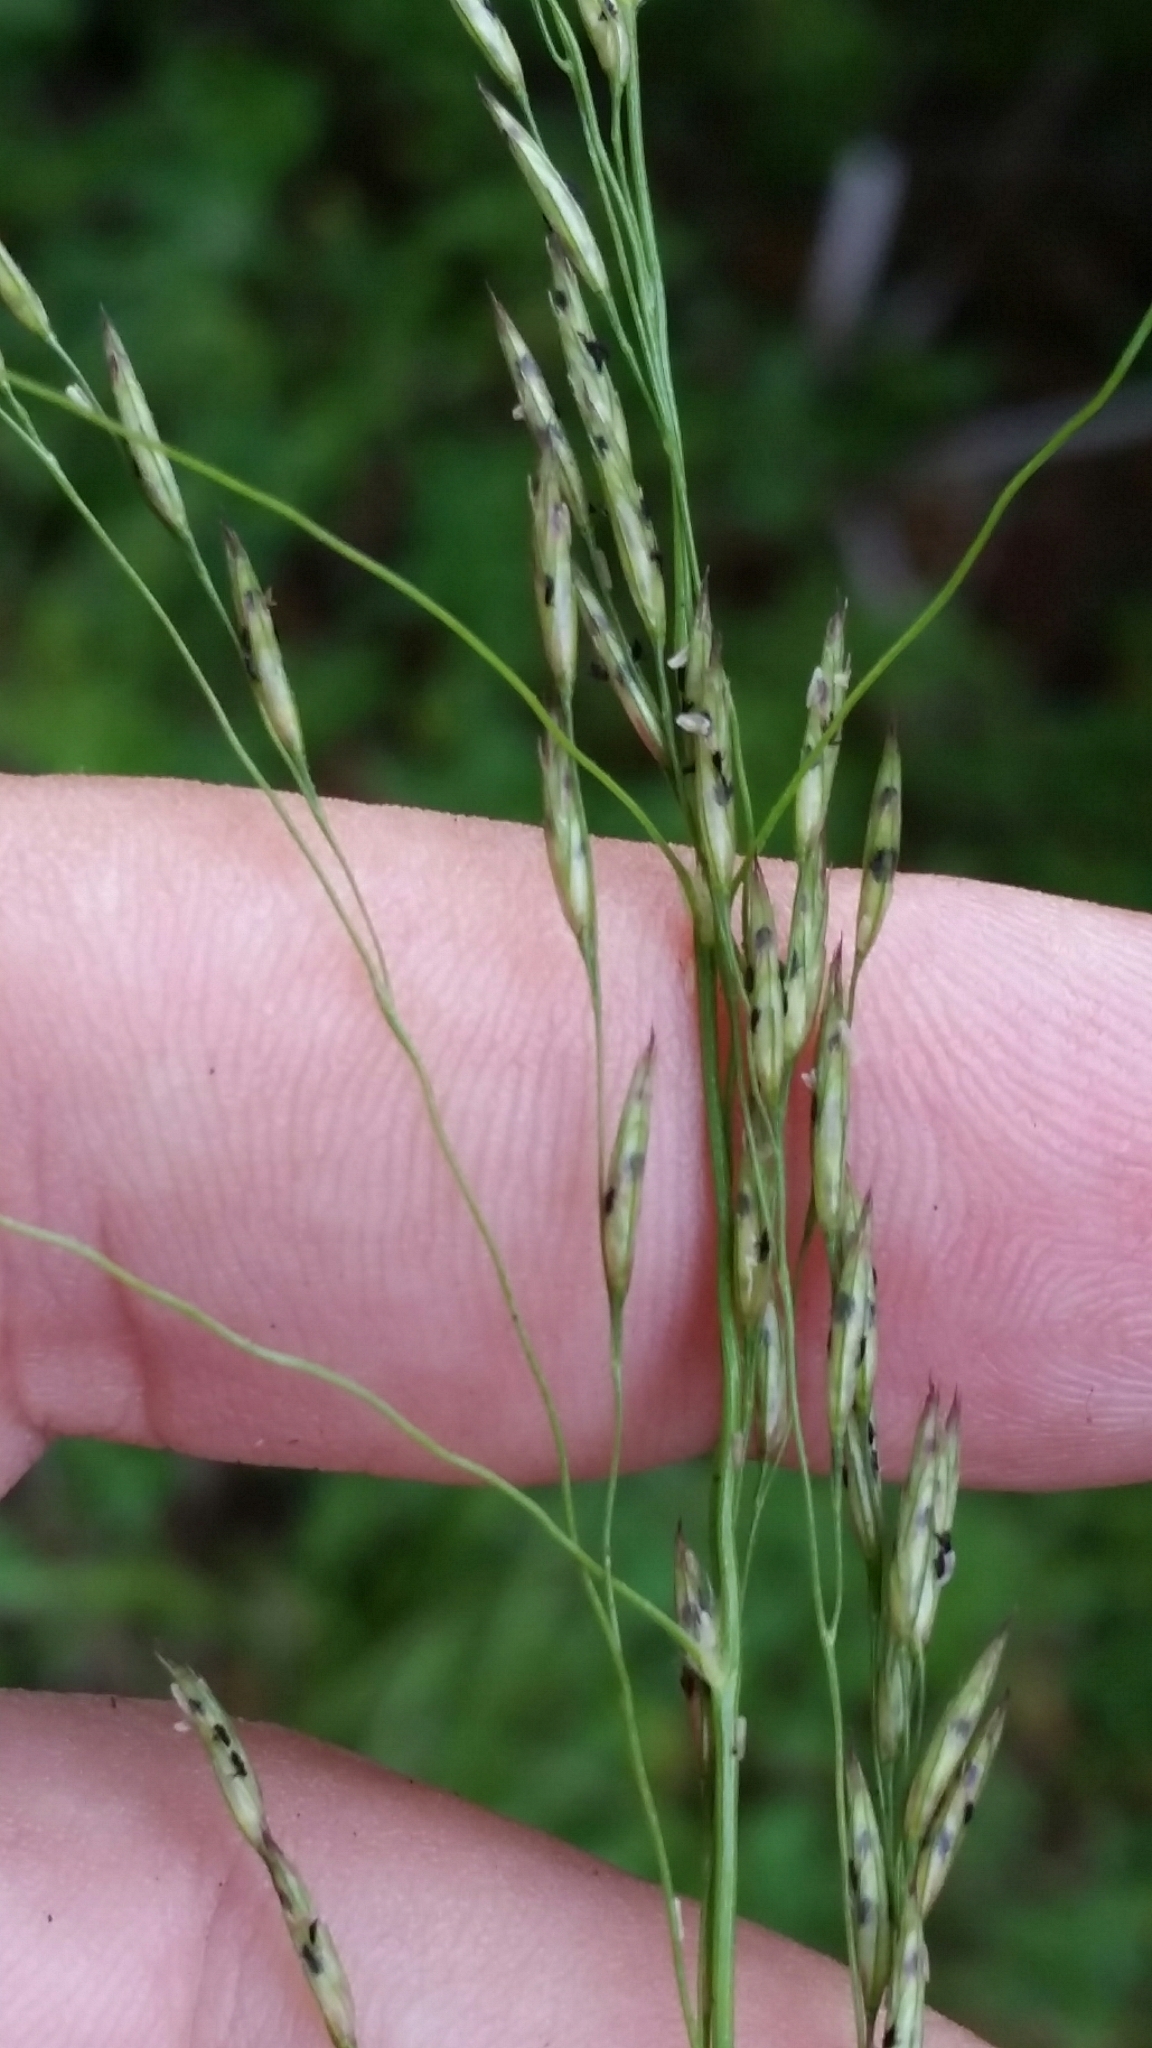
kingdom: Plantae
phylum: Tracheophyta
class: Liliopsida
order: Poales
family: Poaceae
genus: Tridens
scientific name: Tridens flavus
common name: Purpletop
